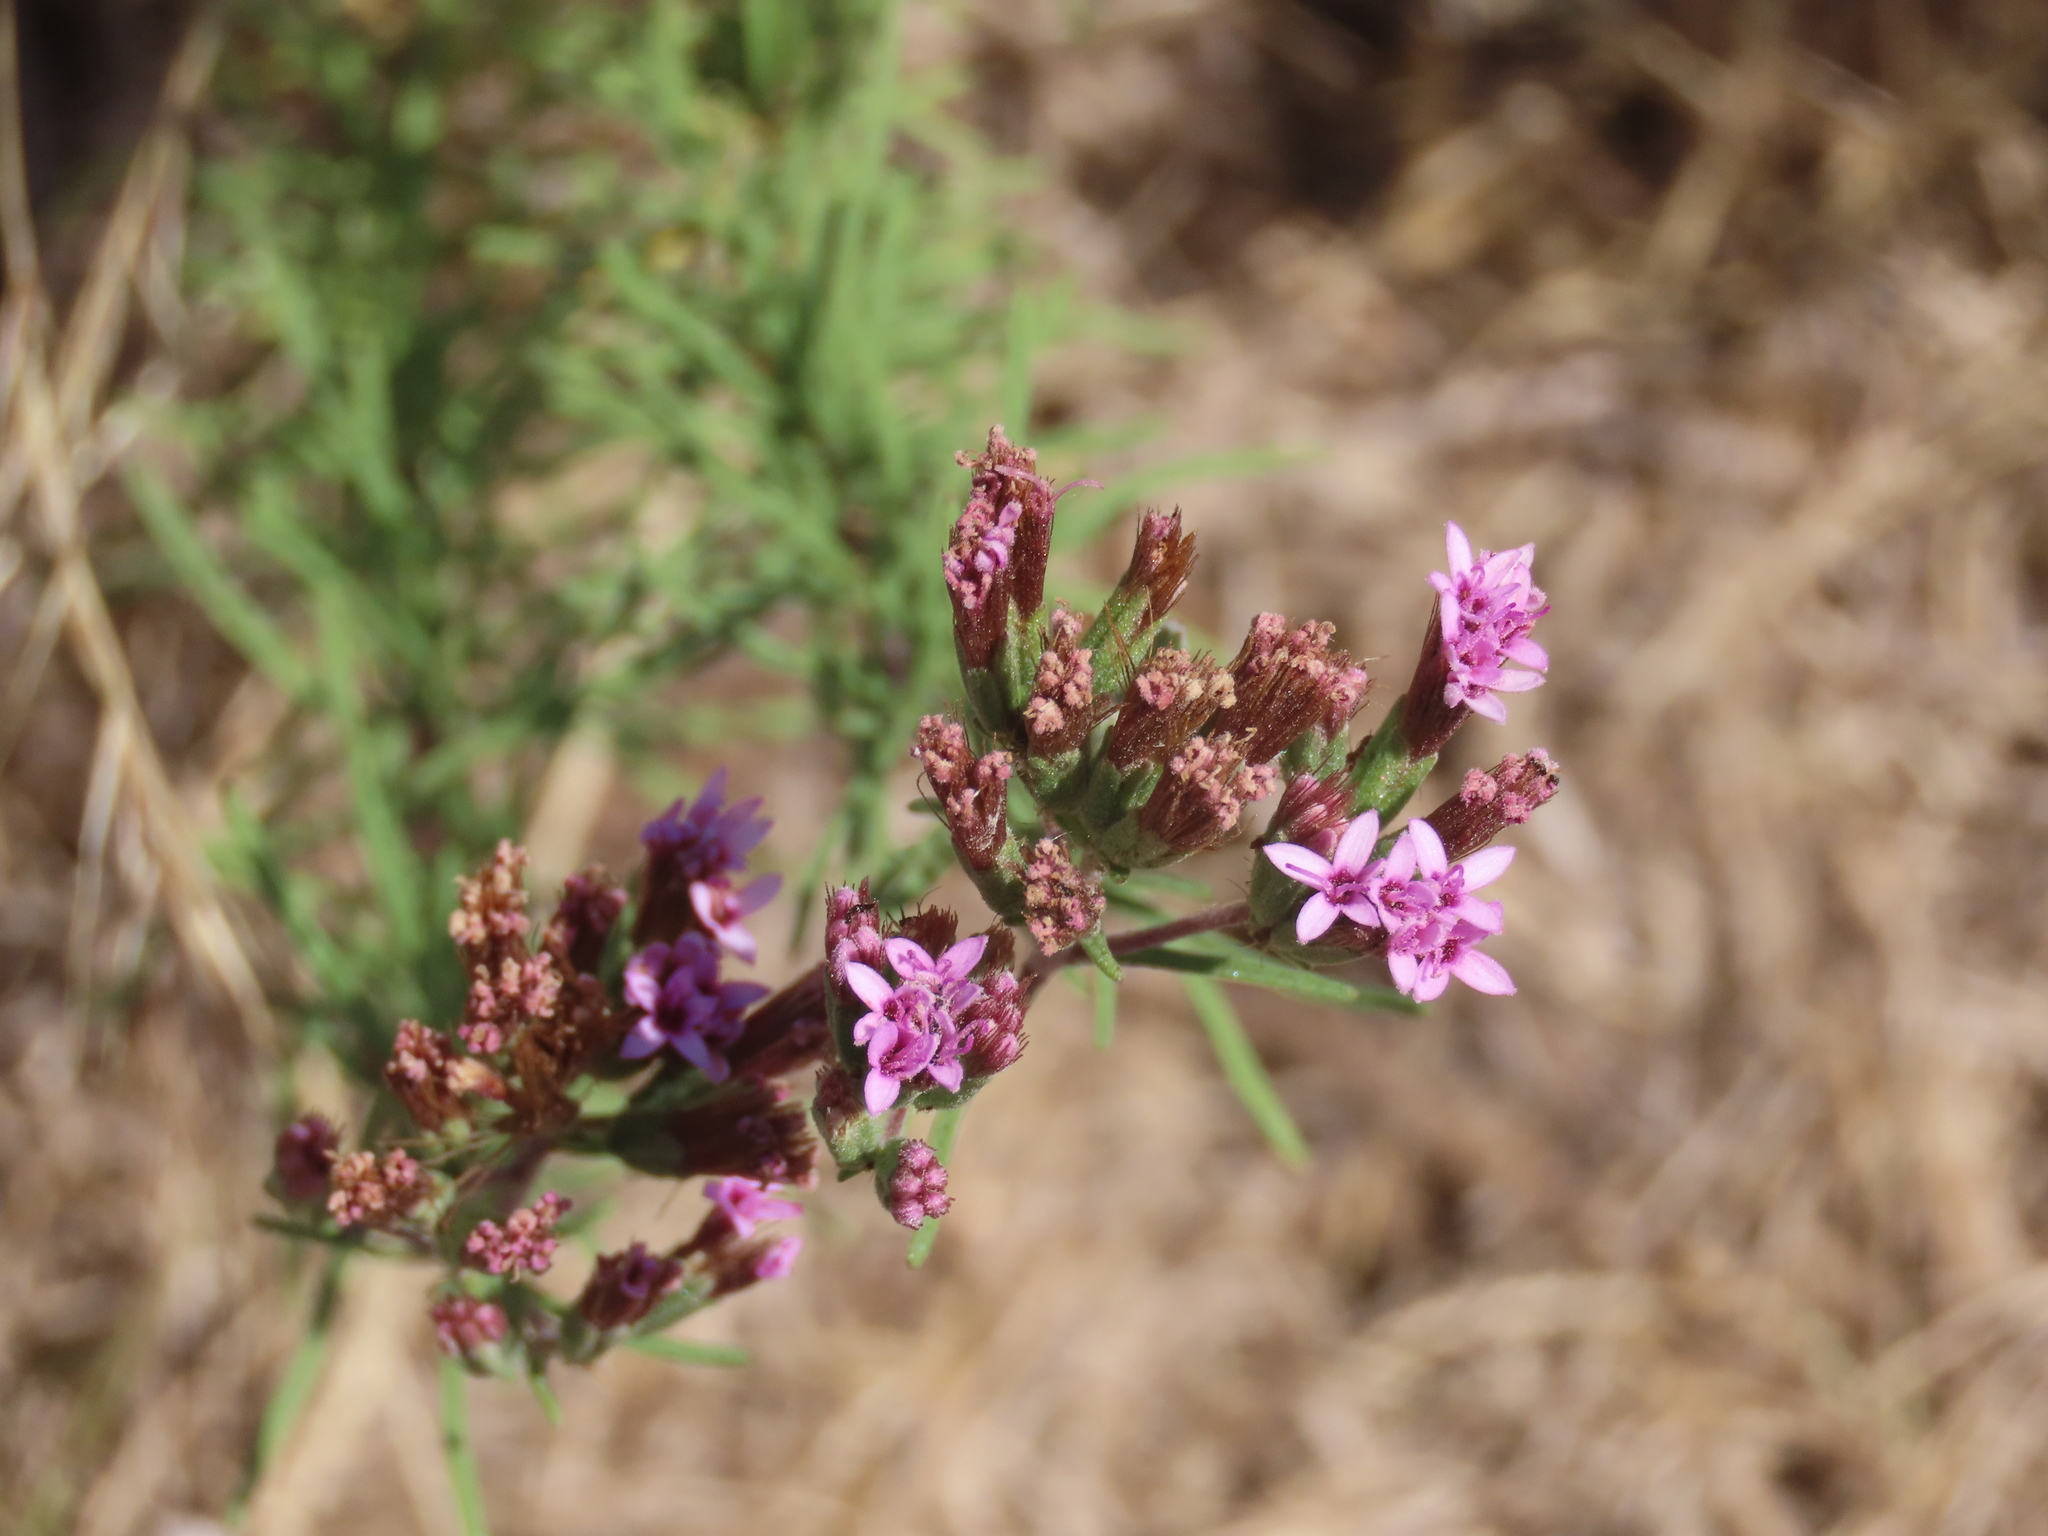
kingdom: Plantae
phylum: Tracheophyta
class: Magnoliopsida
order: Asterales
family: Asteraceae
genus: Stevia
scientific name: Stevia satureifolia
